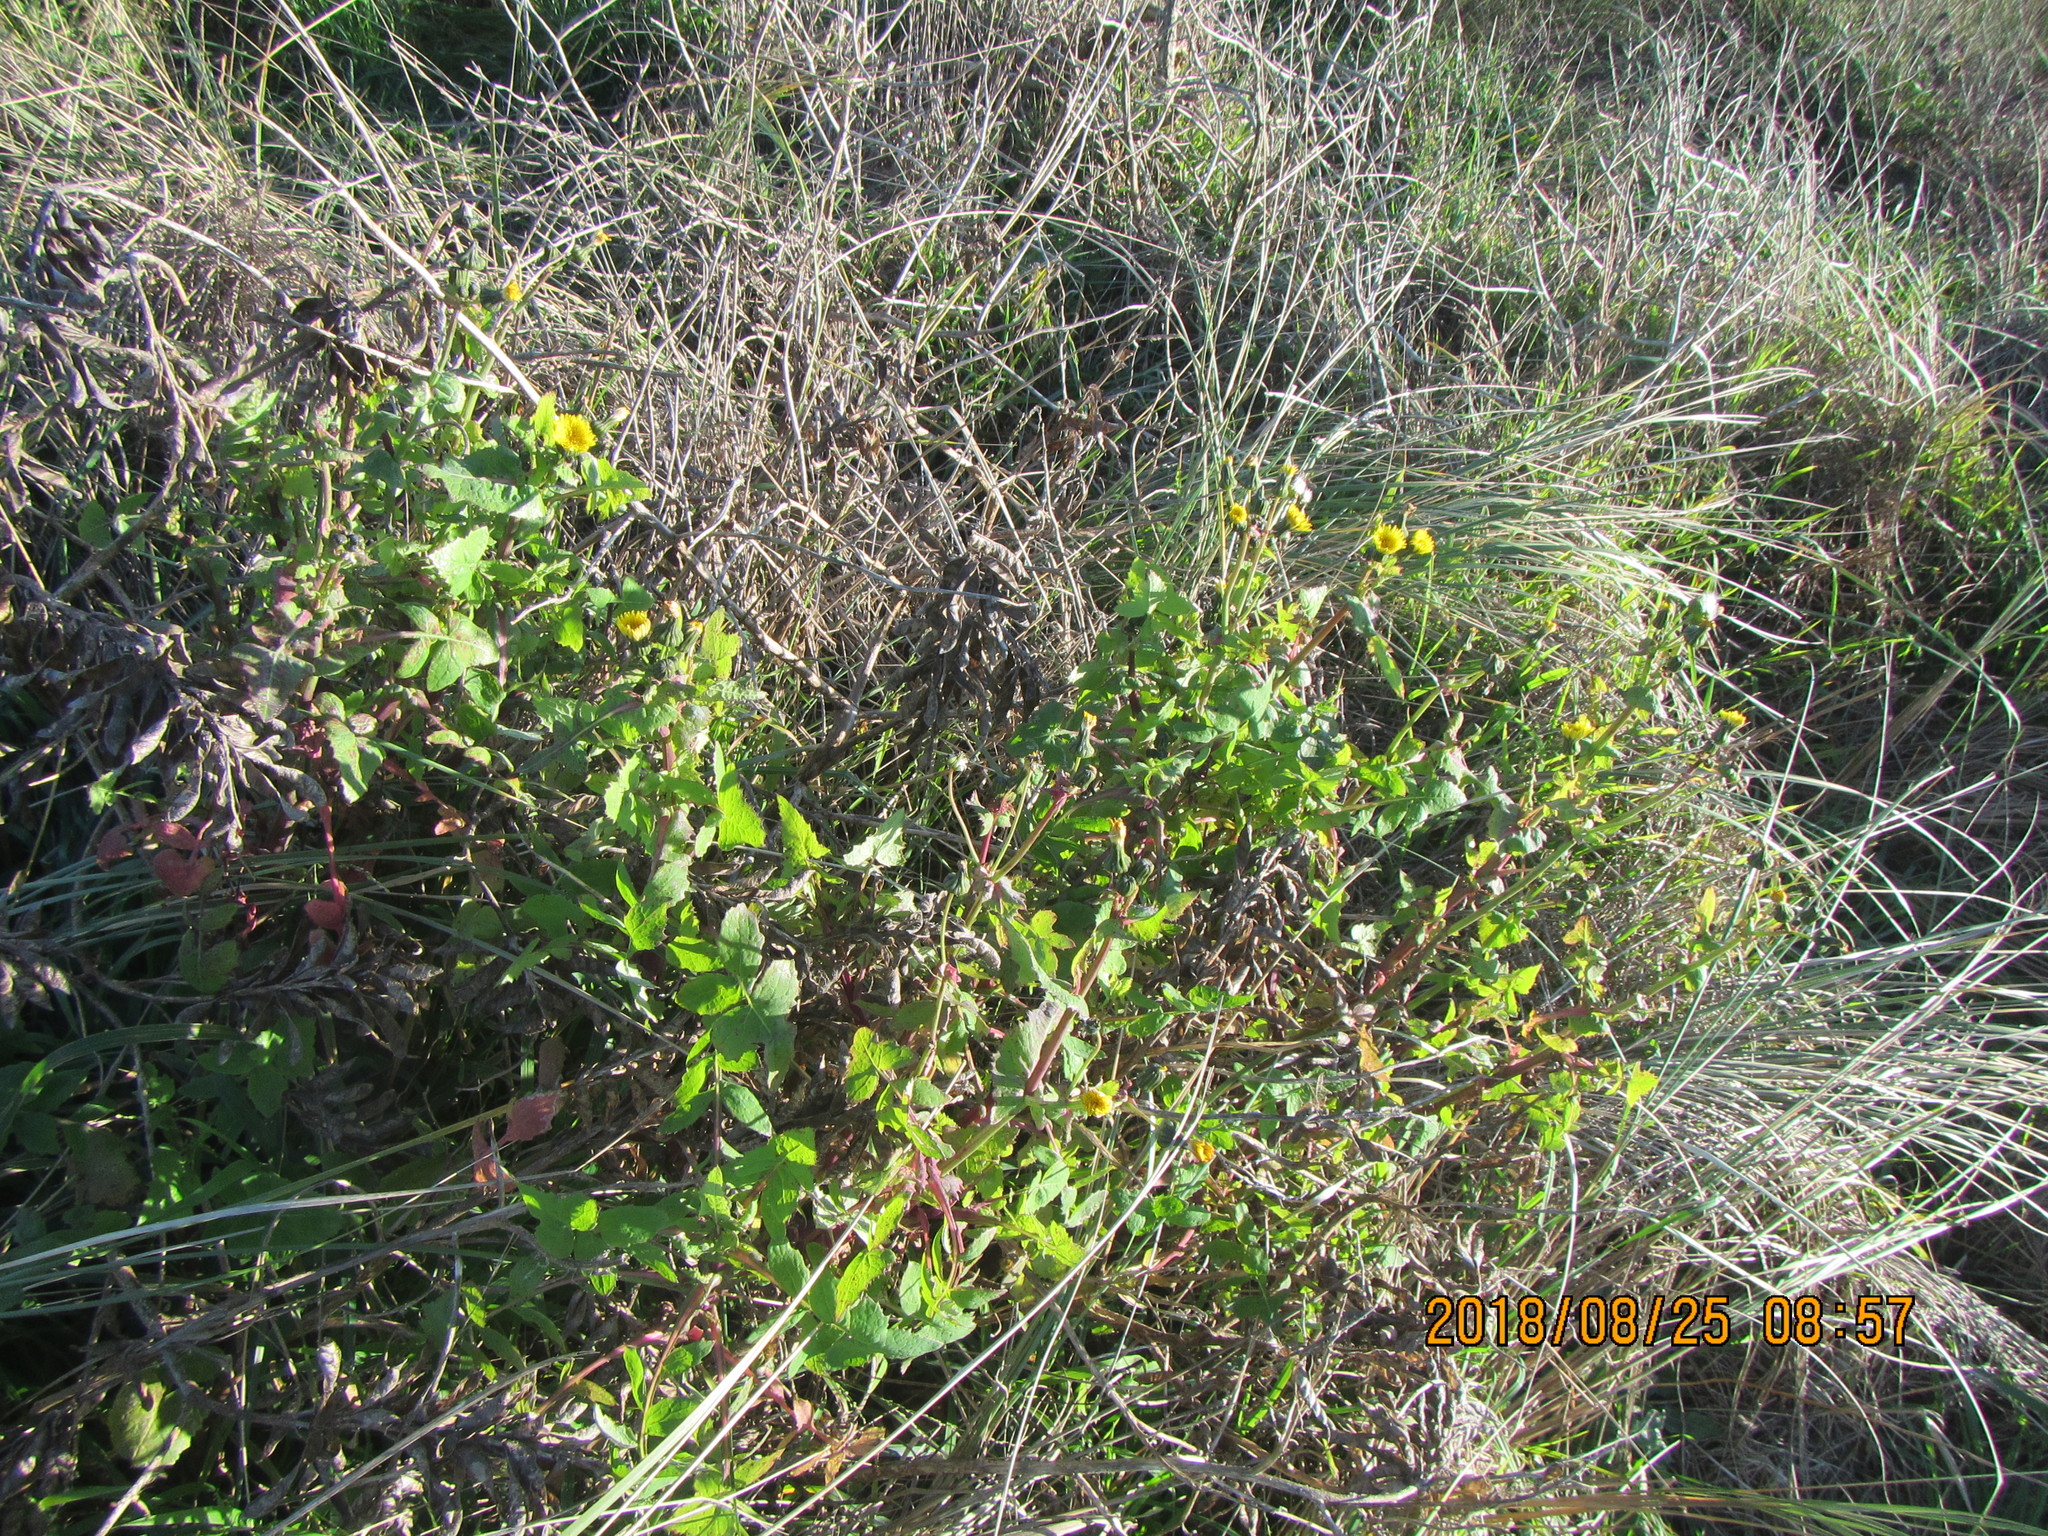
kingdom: Plantae
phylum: Tracheophyta
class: Magnoliopsida
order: Asterales
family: Asteraceae
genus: Sonchus
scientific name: Sonchus oleraceus
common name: Common sowthistle
